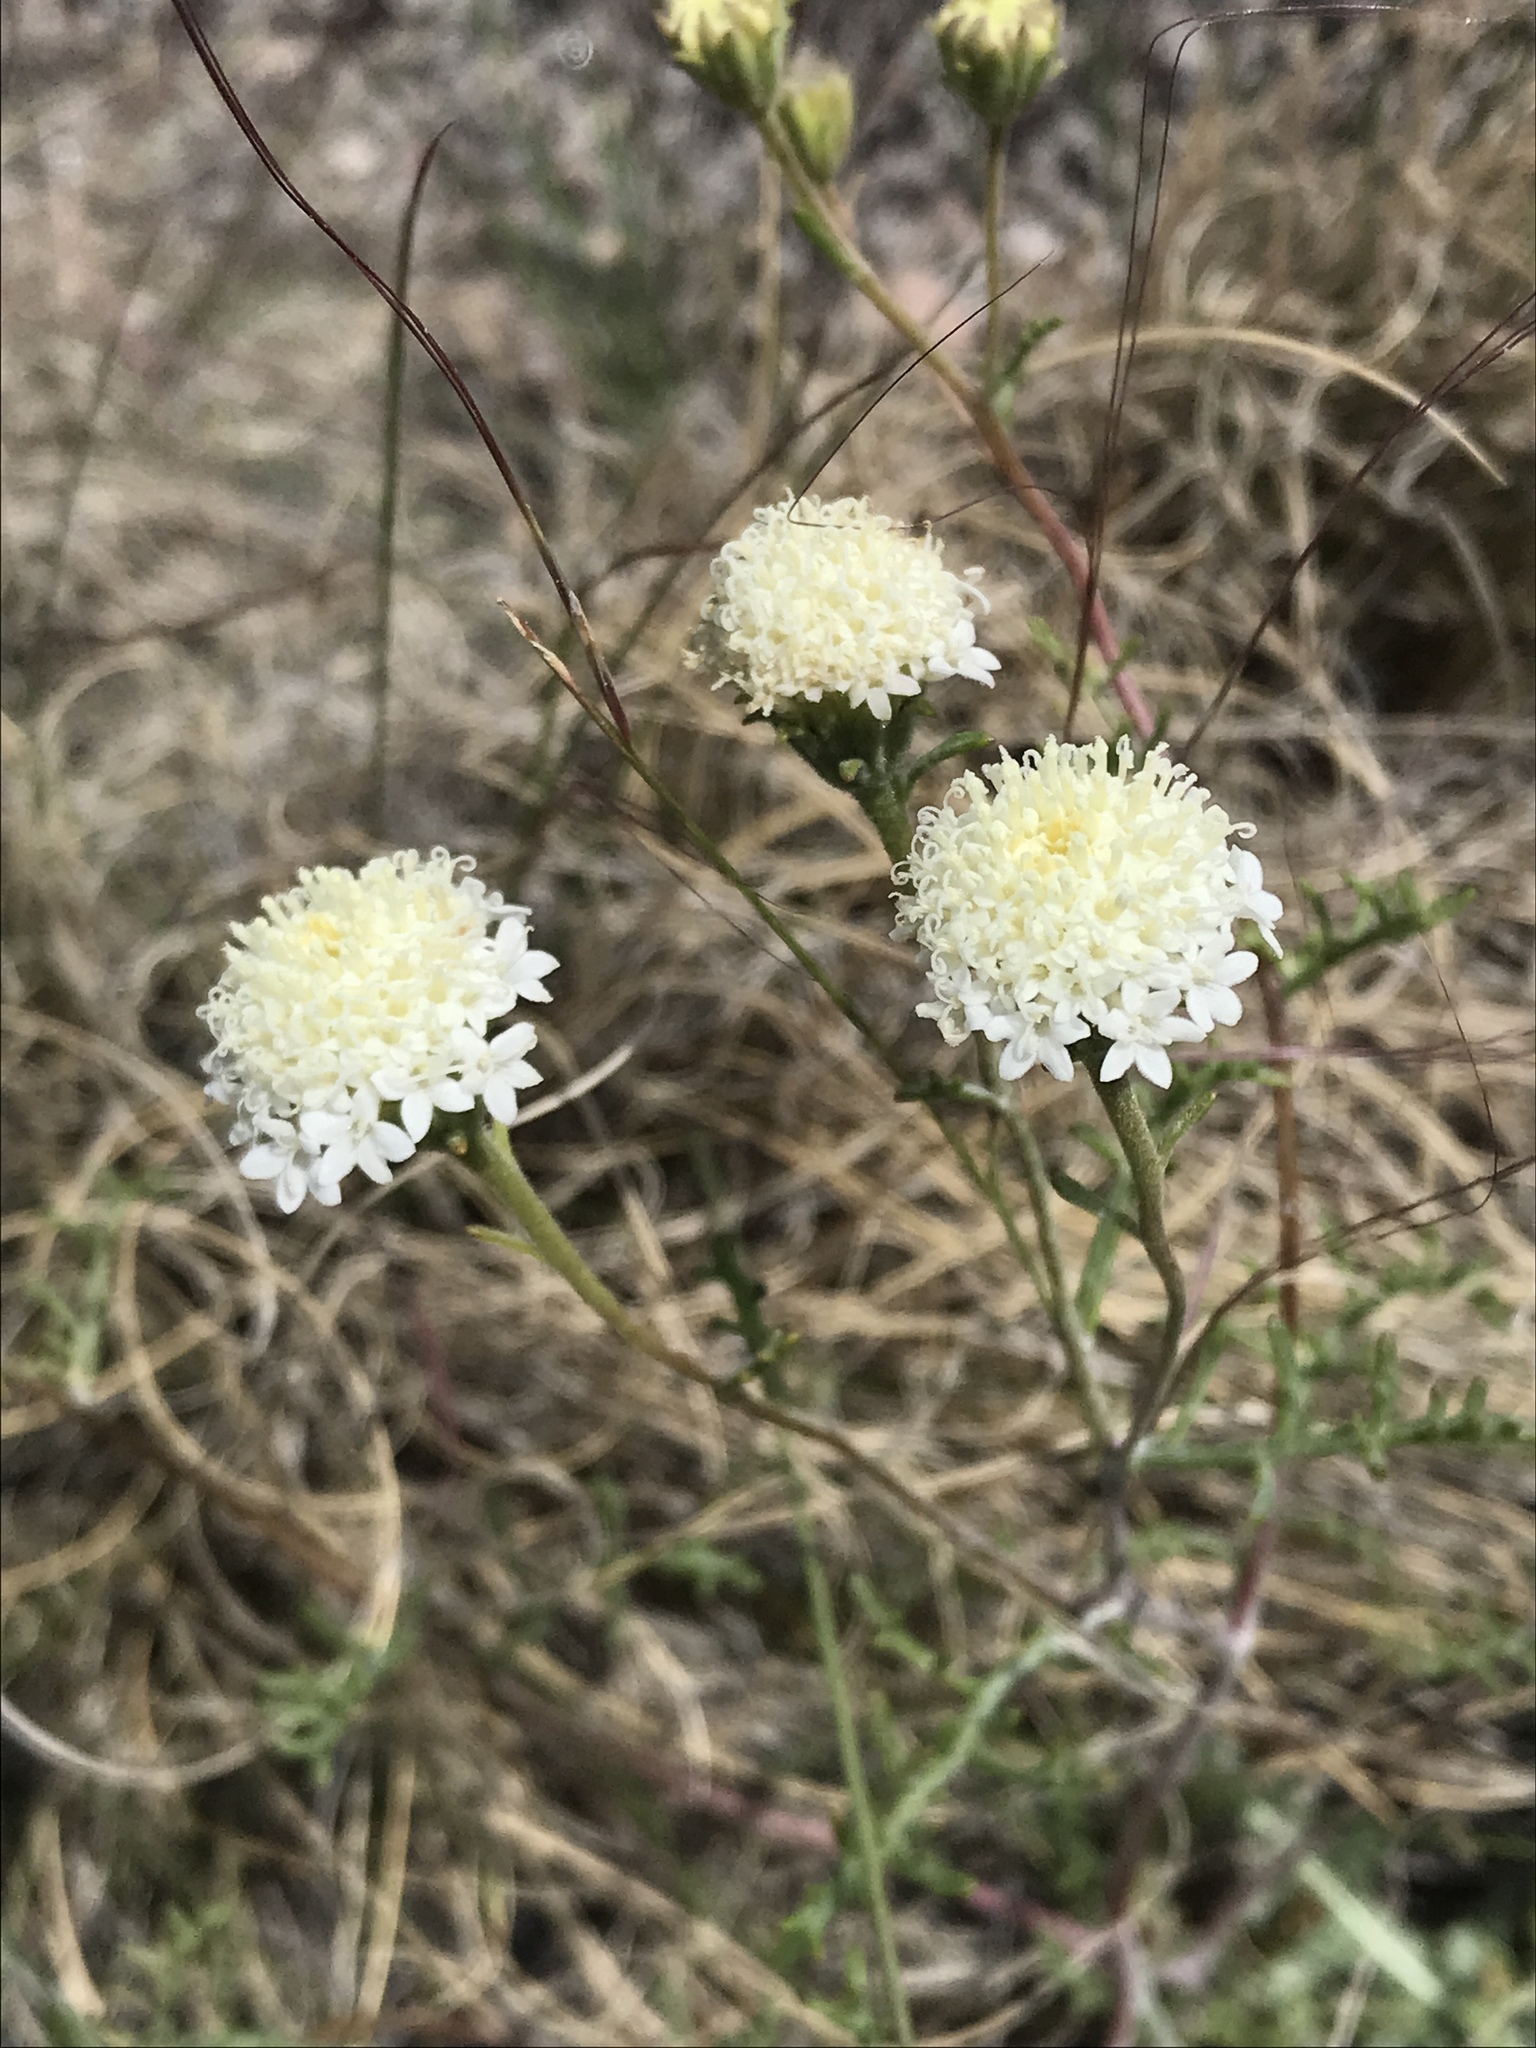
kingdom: Plantae
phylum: Tracheophyta
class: Magnoliopsida
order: Asterales
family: Asteraceae
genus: Chaenactis
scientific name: Chaenactis stevioides
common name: Desert pincushion
